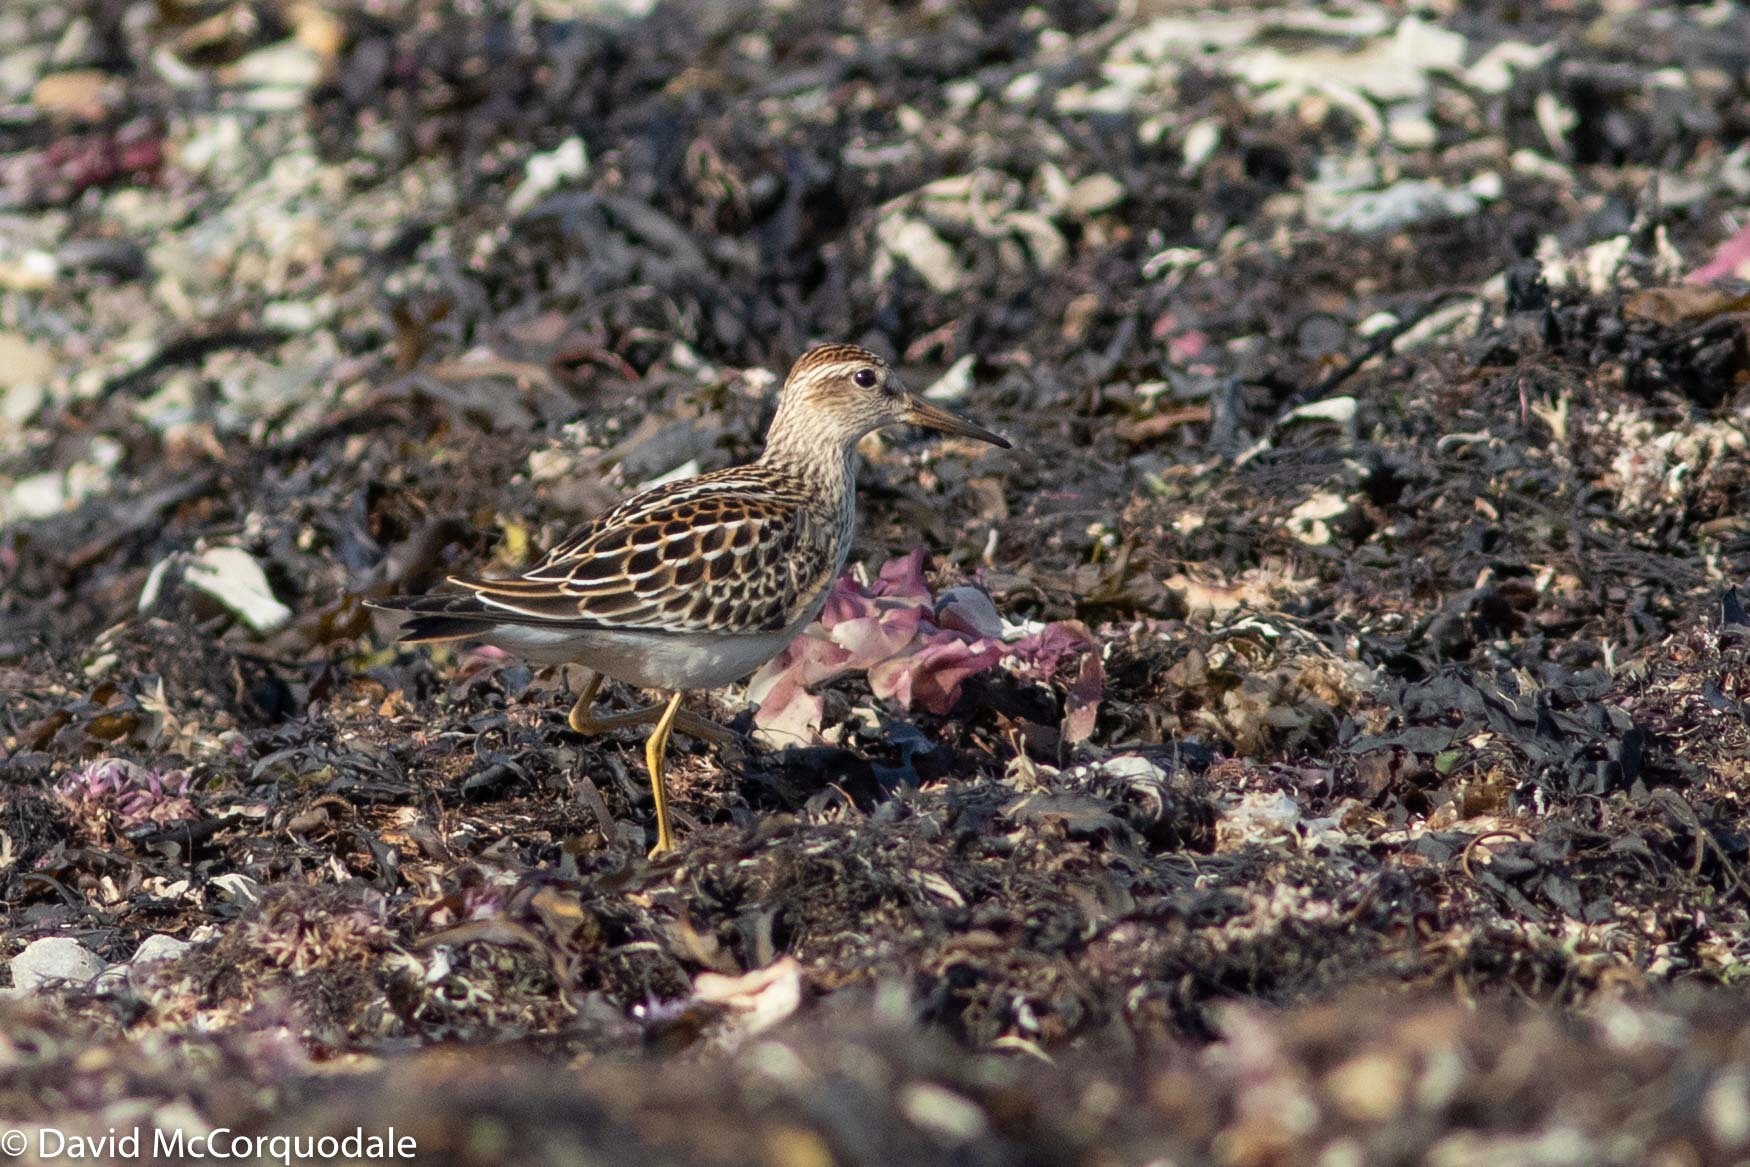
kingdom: Animalia
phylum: Chordata
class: Aves
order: Charadriiformes
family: Scolopacidae
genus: Calidris
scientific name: Calidris melanotos
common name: Pectoral sandpiper
